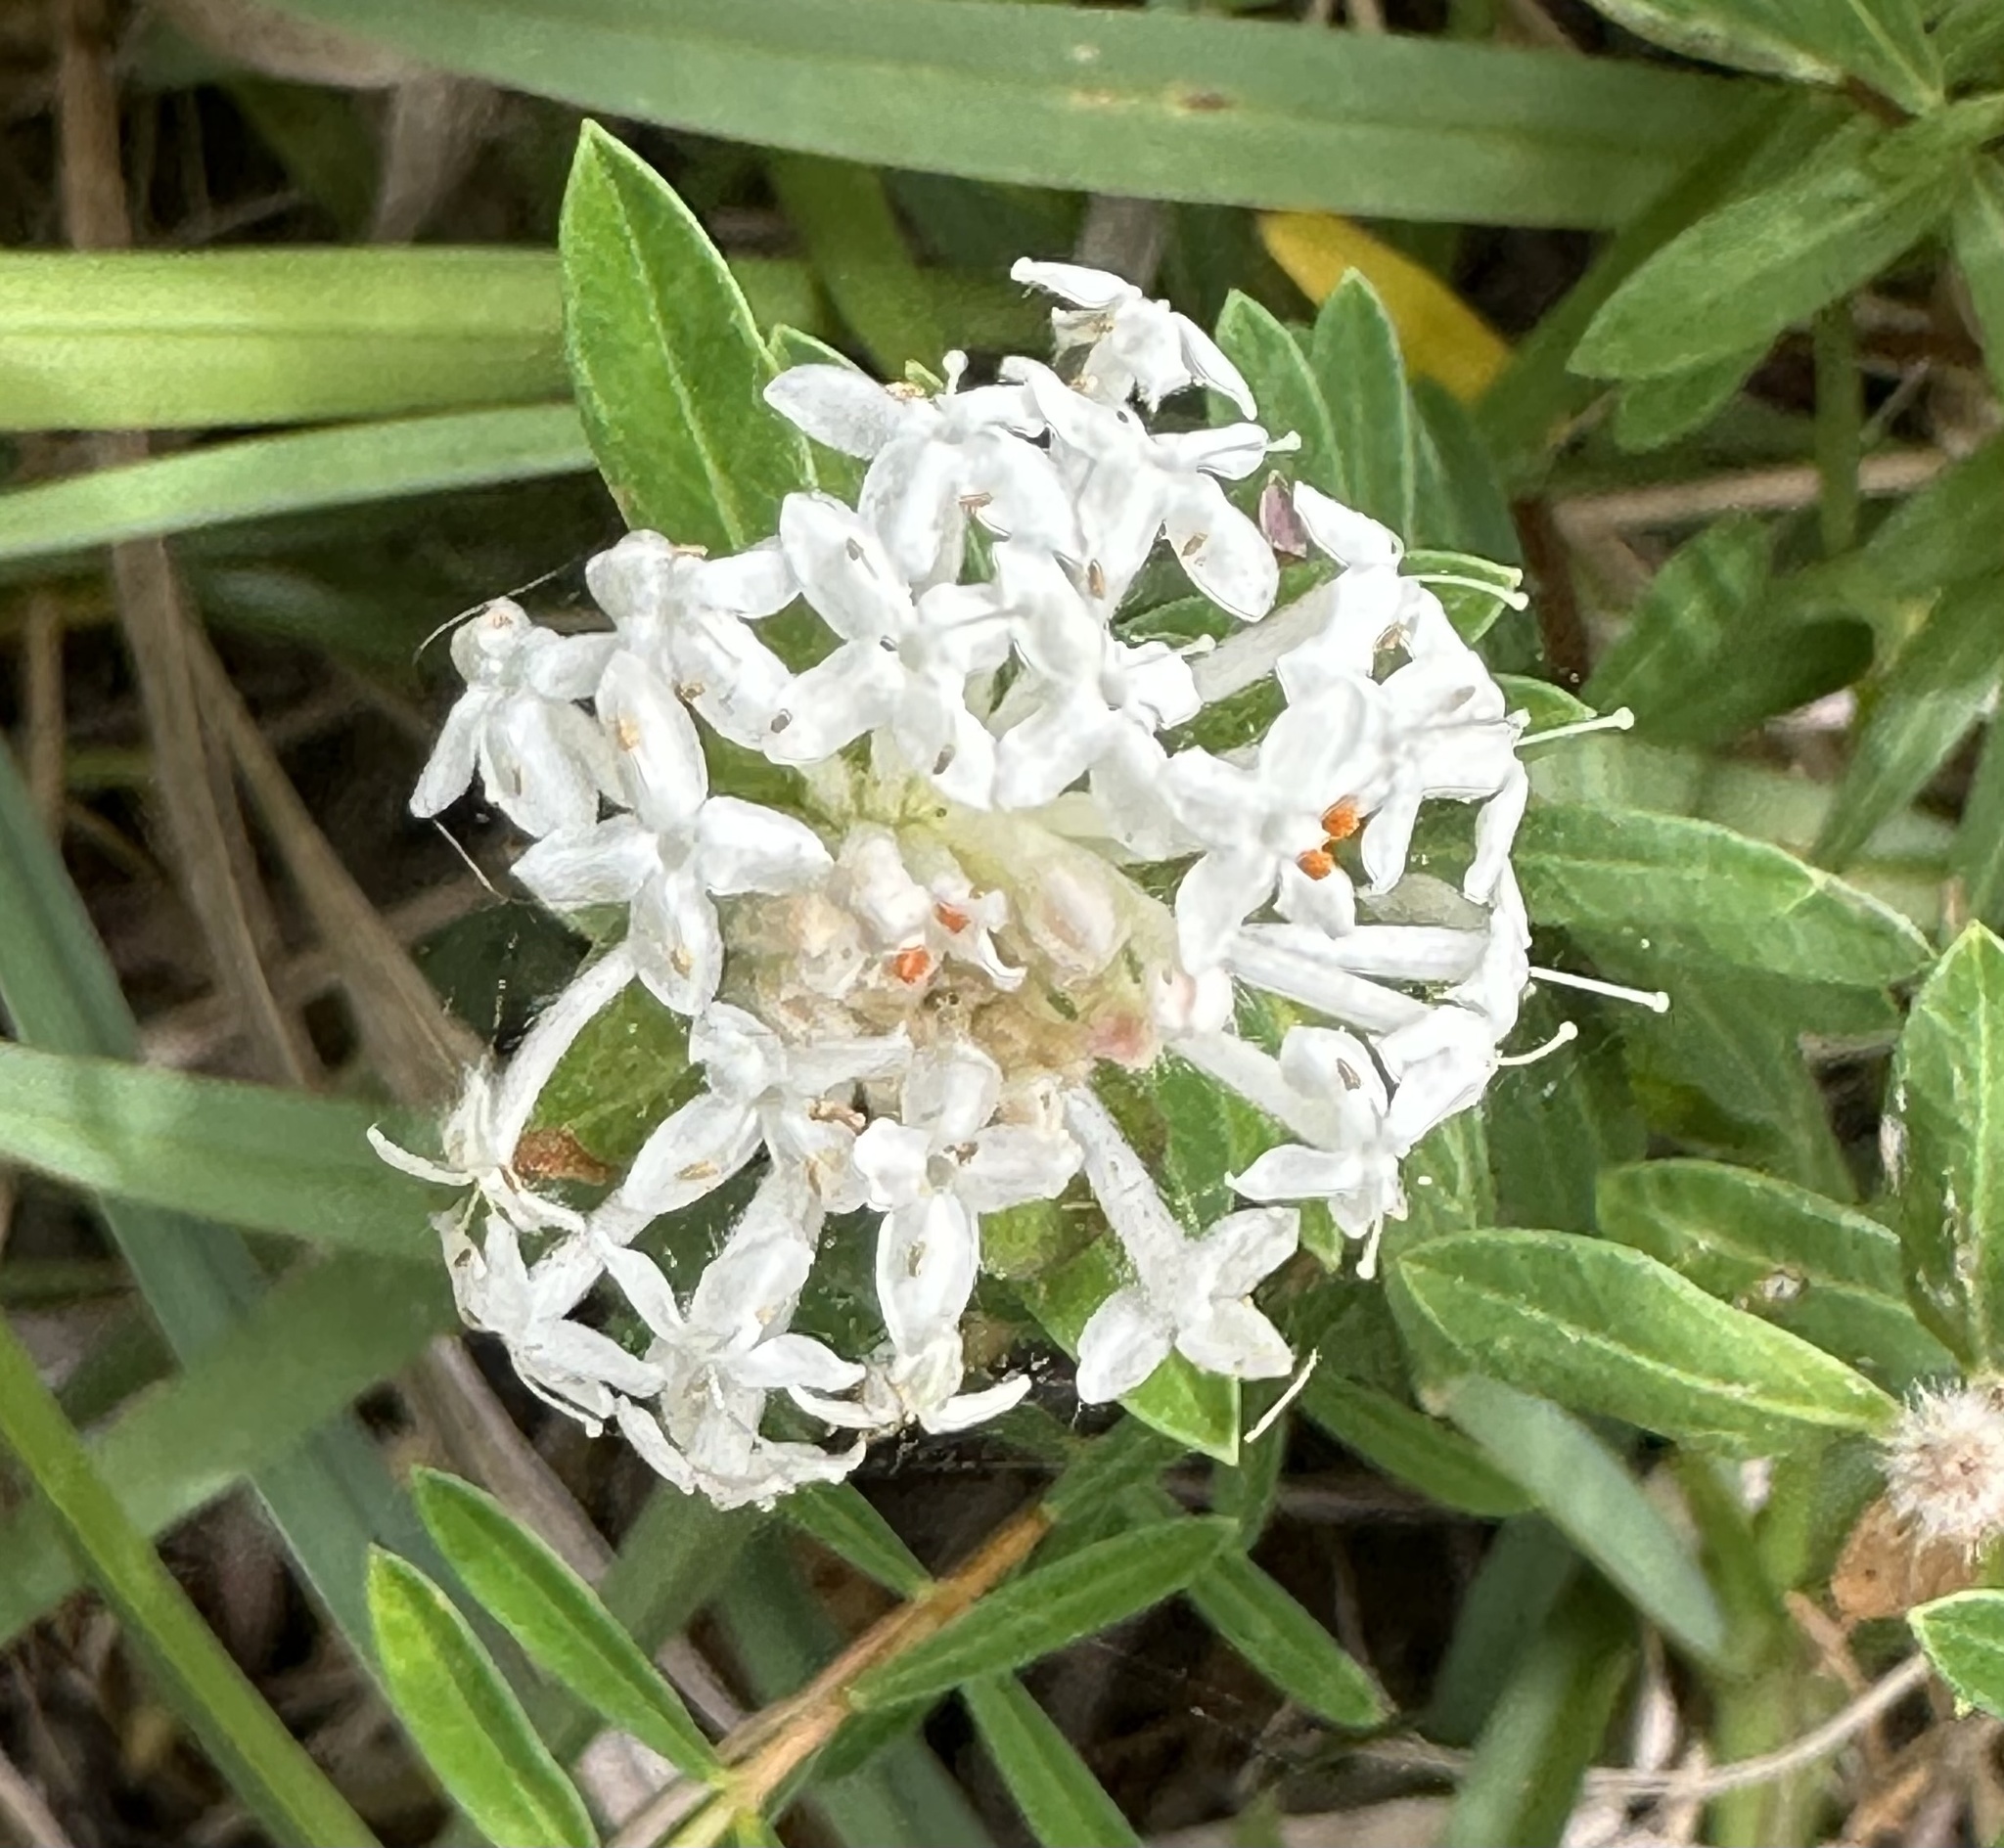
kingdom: Plantae
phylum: Tracheophyta
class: Magnoliopsida
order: Malvales
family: Thymelaeaceae
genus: Pimelea
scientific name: Pimelea linifolia
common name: Queen-of-the-bush
